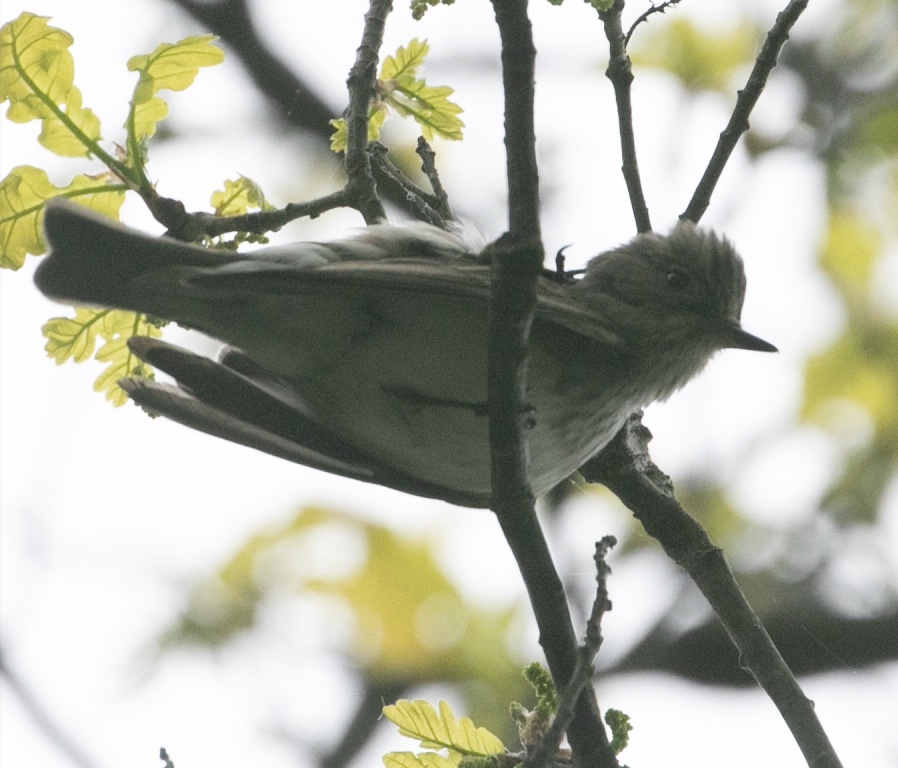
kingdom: Animalia
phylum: Chordata
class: Aves
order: Passeriformes
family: Muscicapidae
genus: Muscicapa
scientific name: Muscicapa striata
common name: Spotted flycatcher
